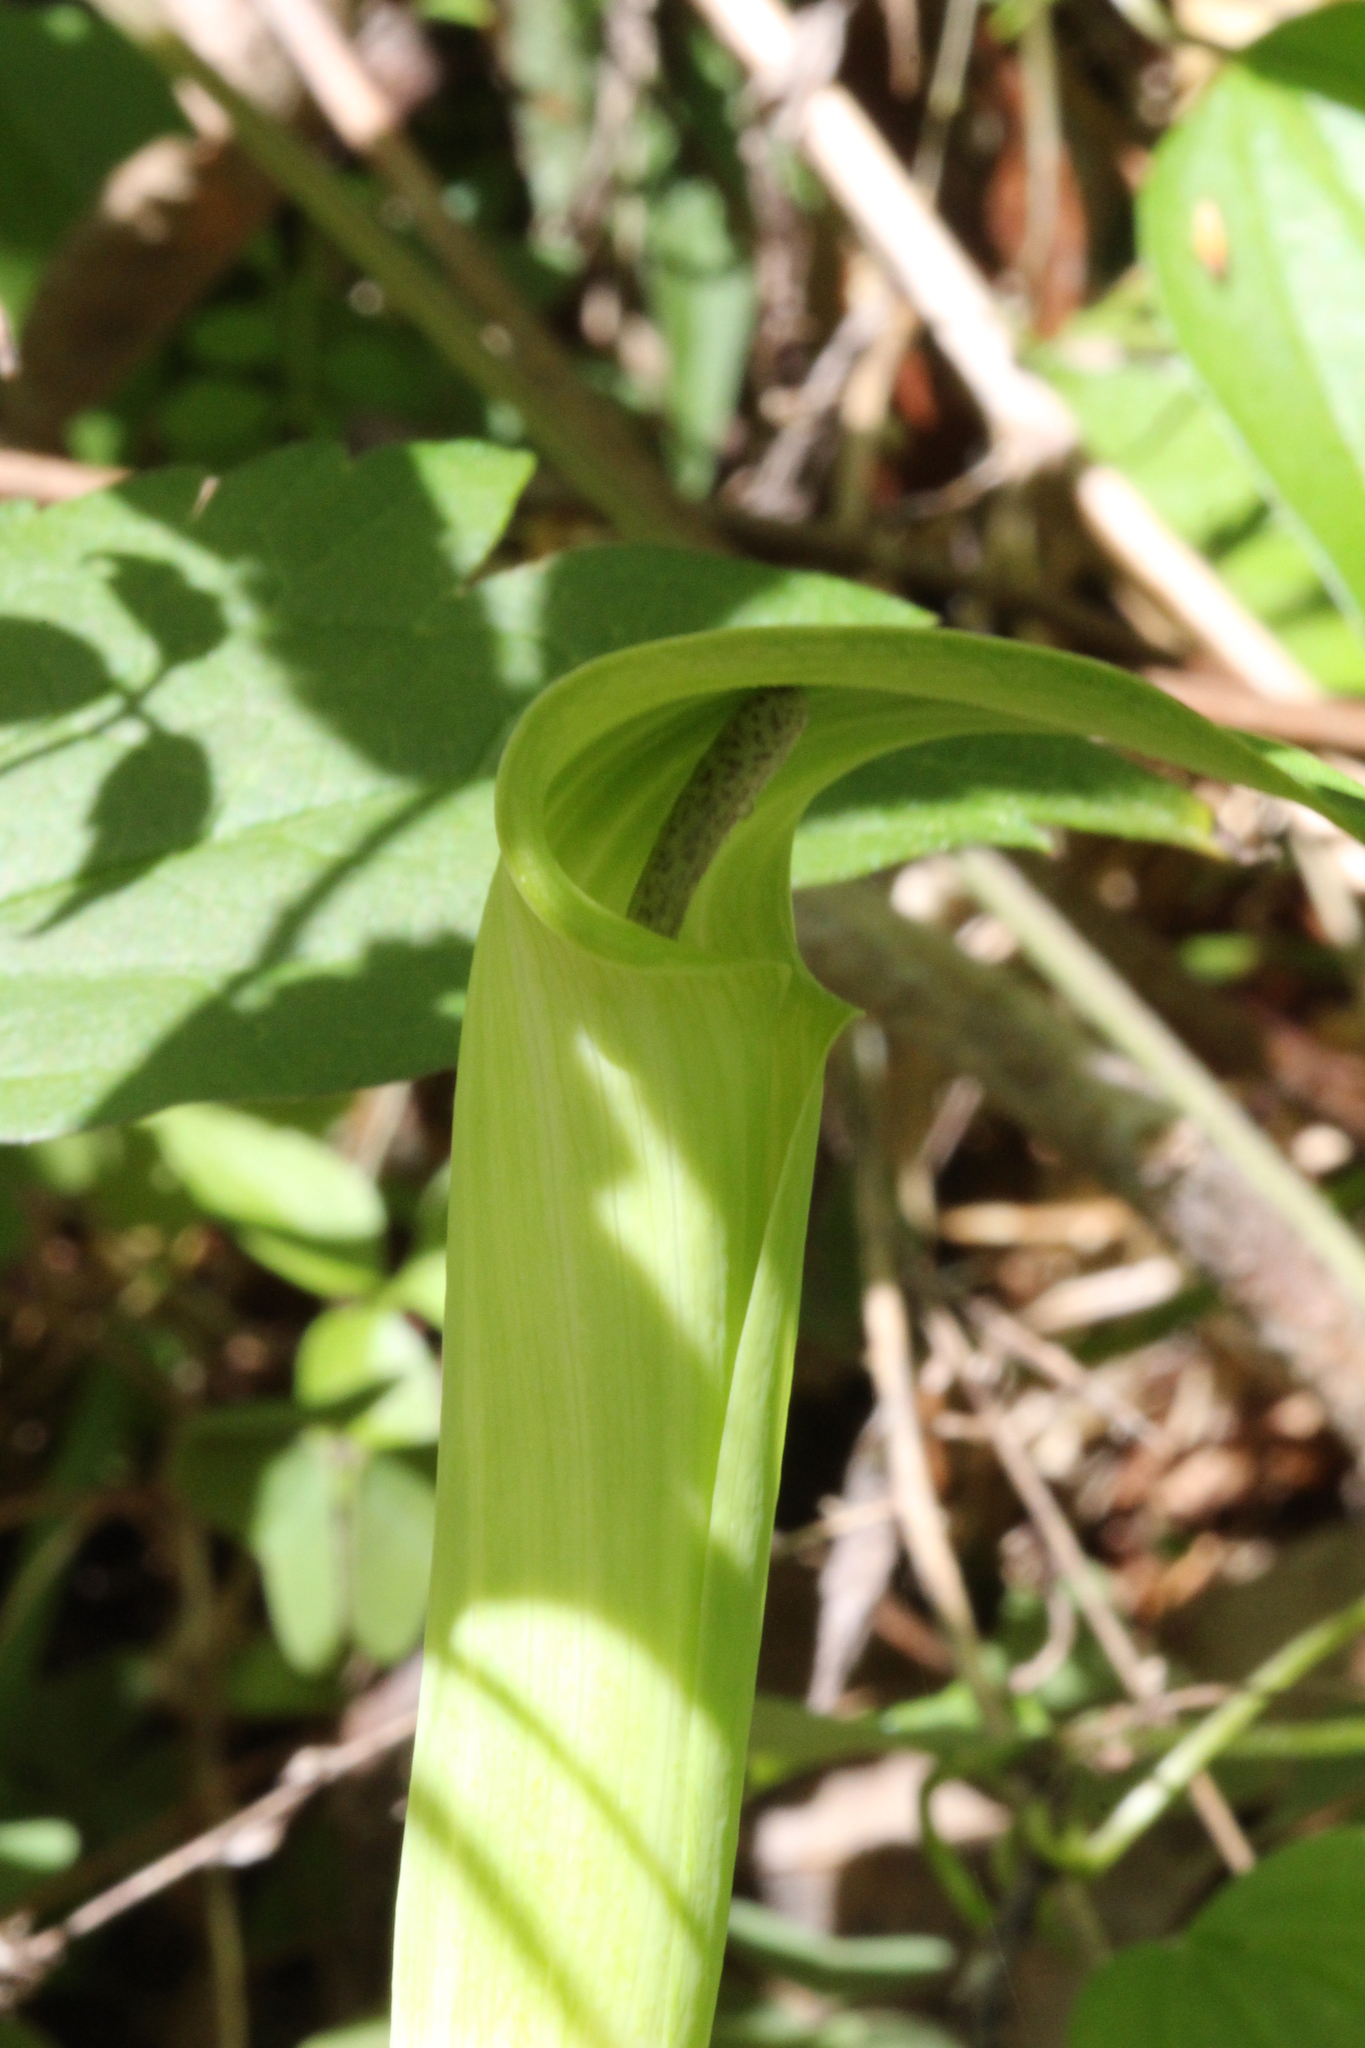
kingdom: Plantae
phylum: Tracheophyta
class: Liliopsida
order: Alismatales
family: Araceae
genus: Arisaema
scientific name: Arisaema quinatum
